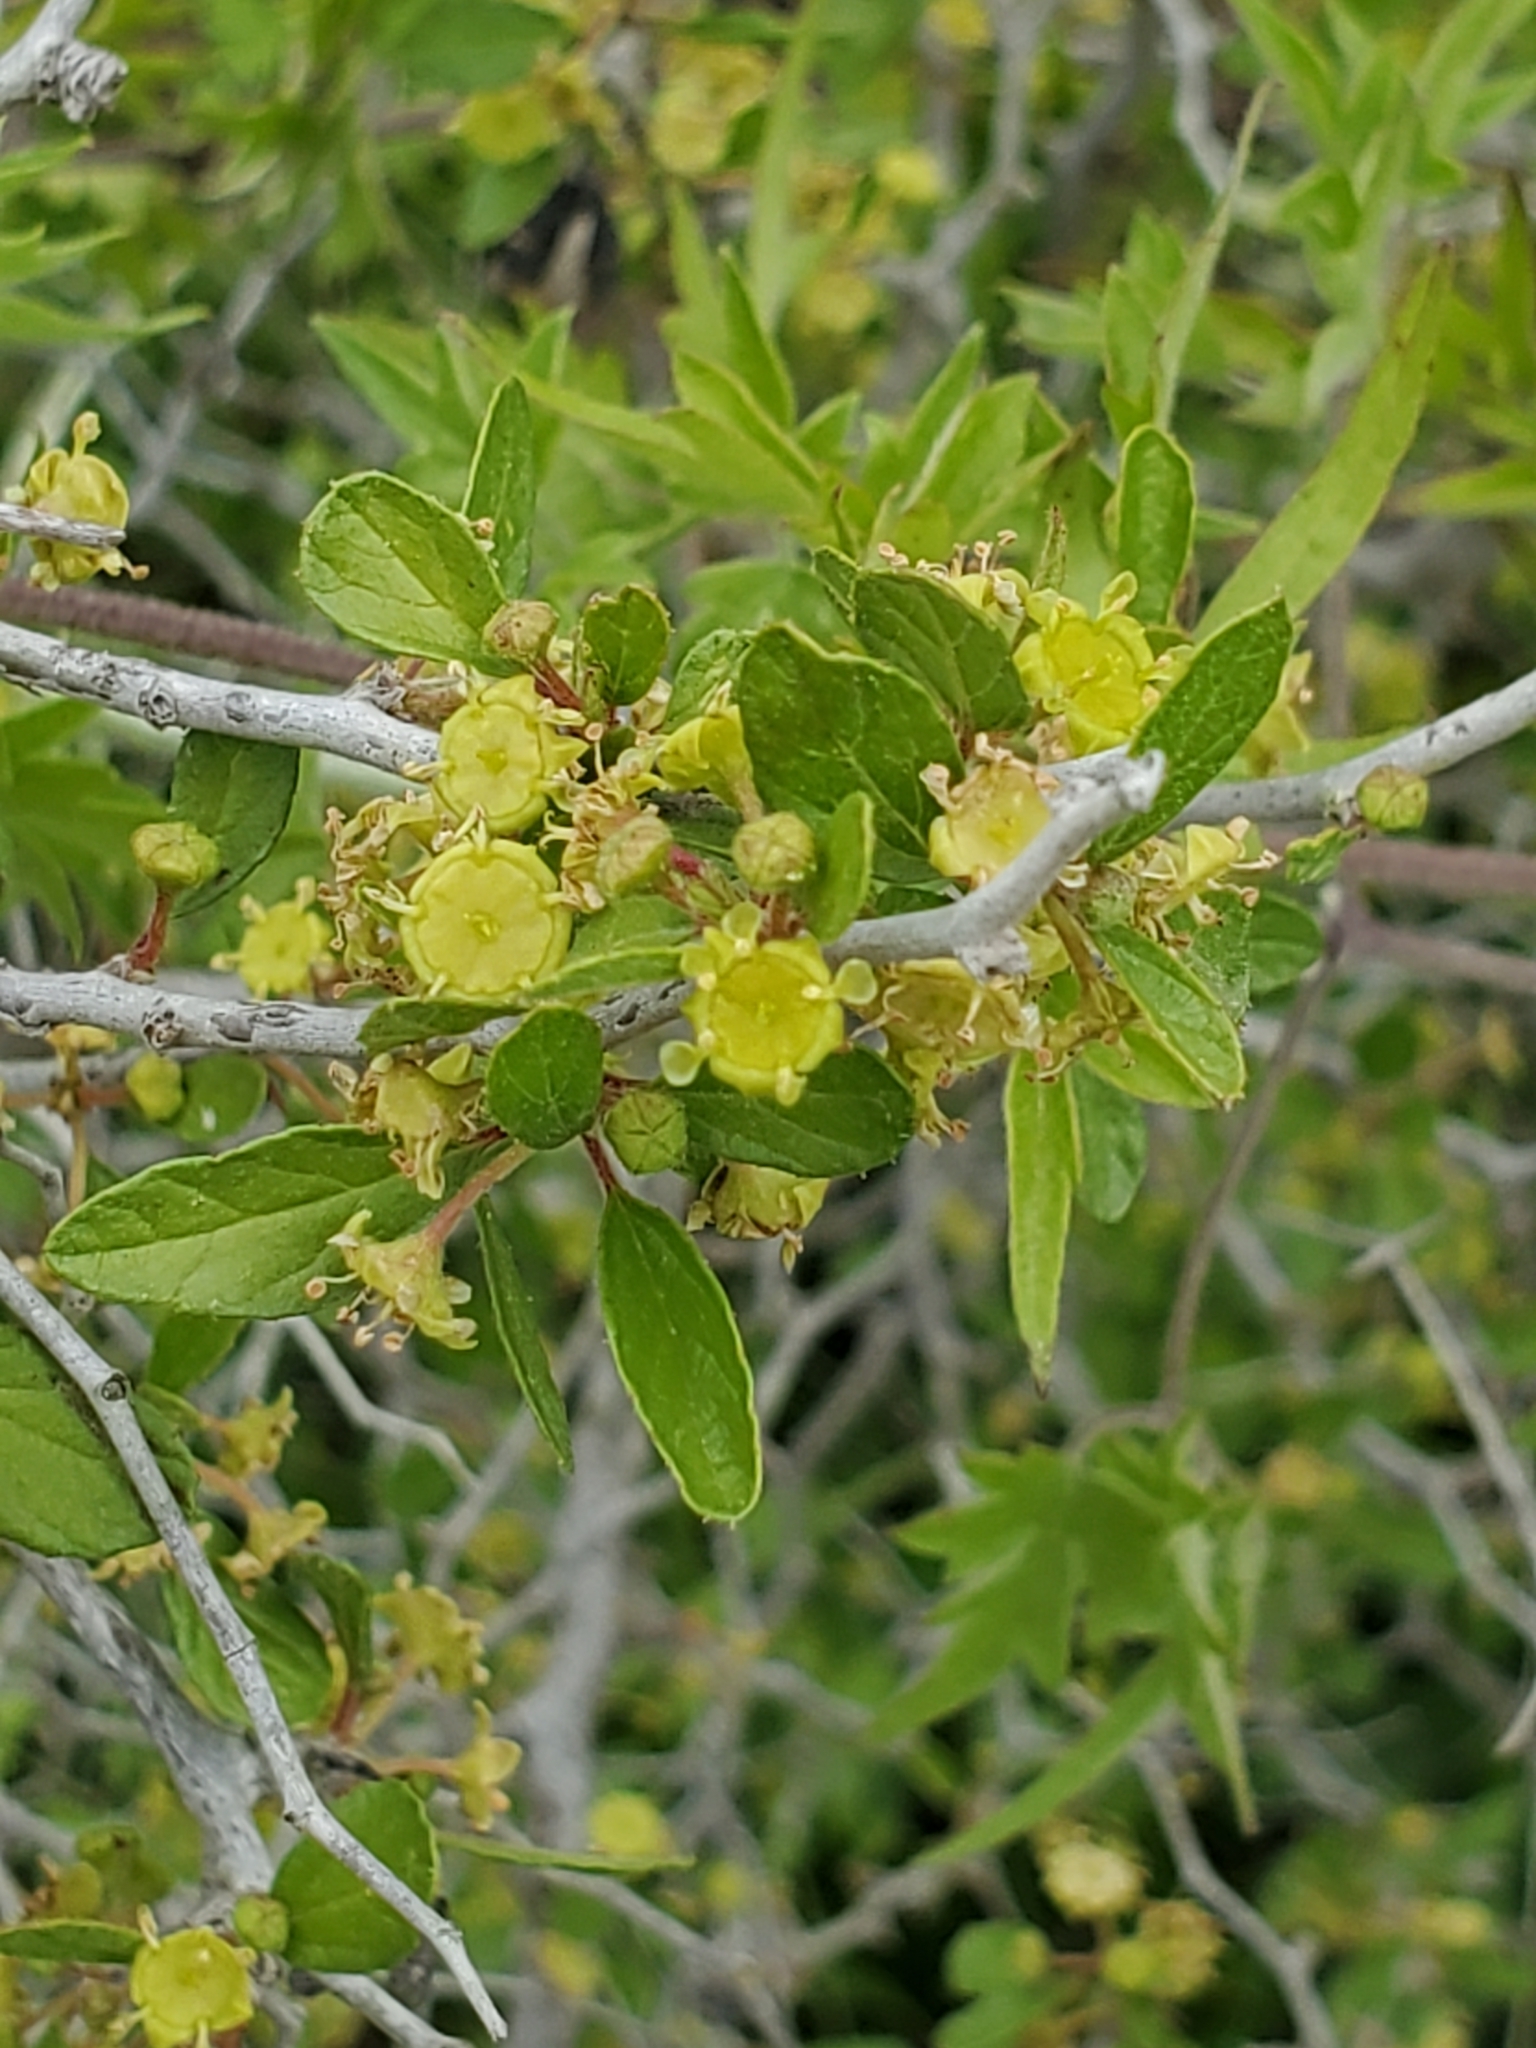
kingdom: Plantae
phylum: Tracheophyta
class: Magnoliopsida
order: Rosales
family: Rhamnaceae
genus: Colubrina
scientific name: Colubrina texensis
